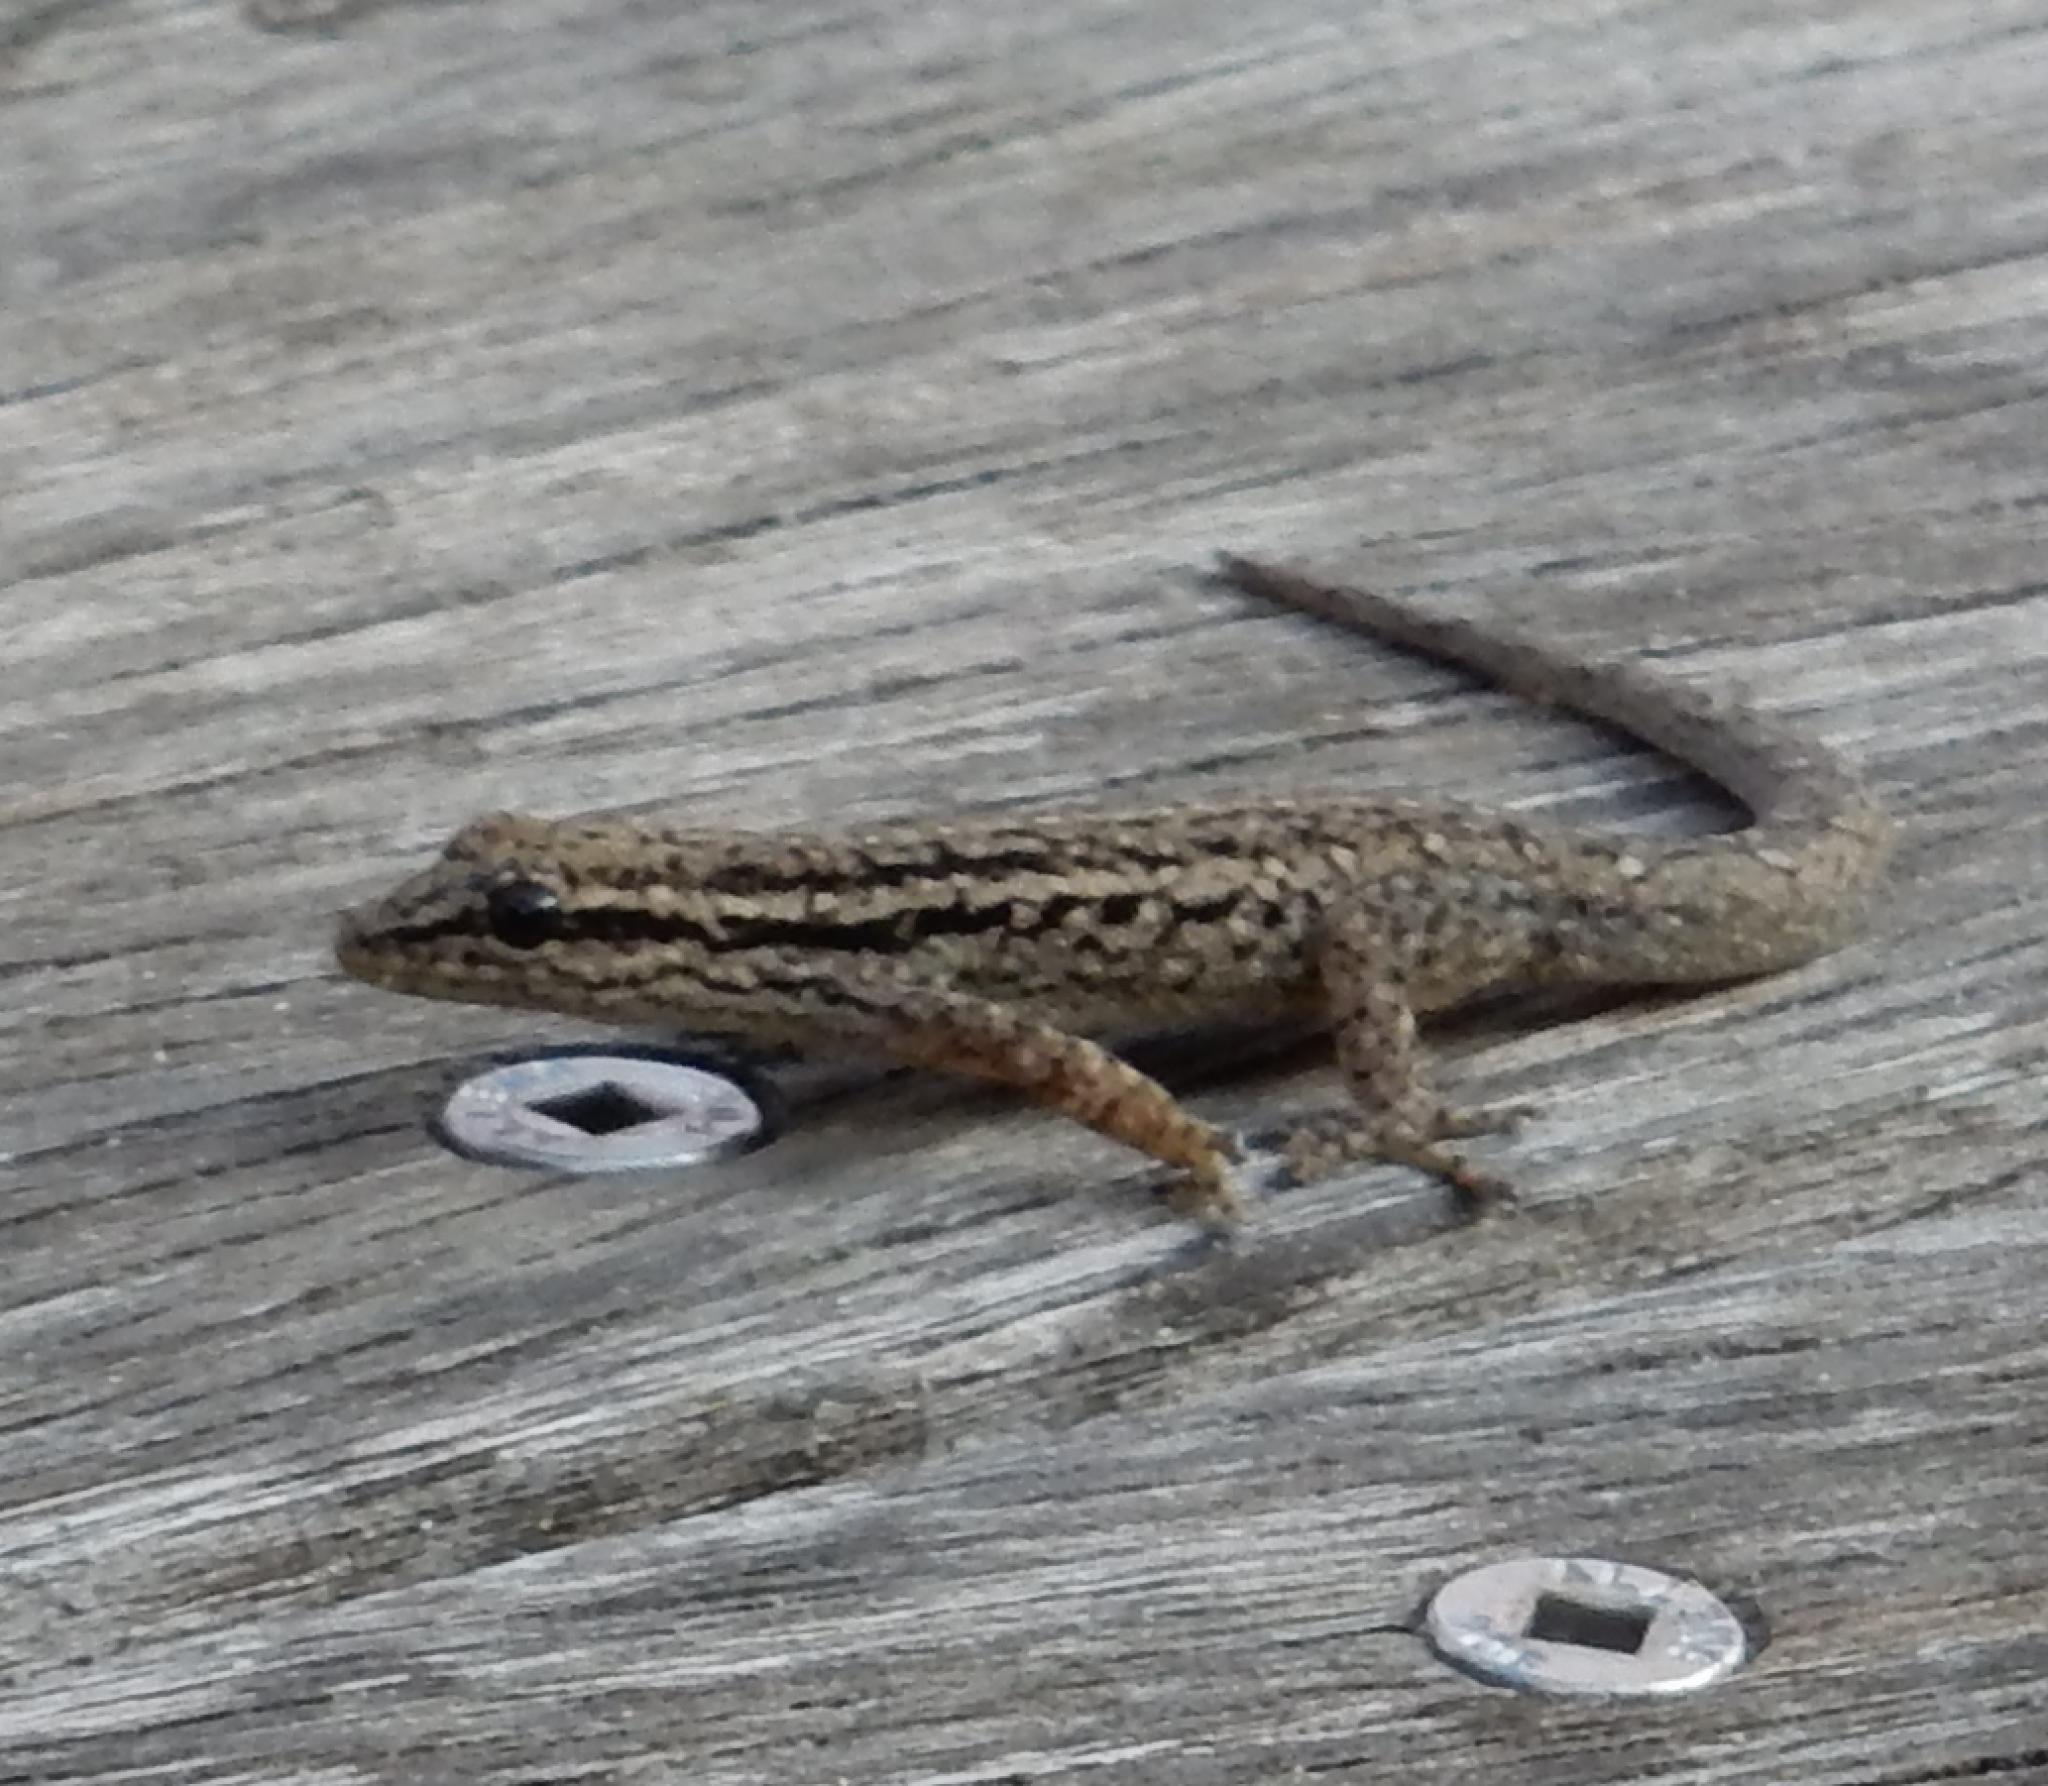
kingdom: Animalia
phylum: Chordata
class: Squamata
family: Gekkonidae
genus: Lygodactylus
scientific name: Lygodactylus capensis
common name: Cape dwarf gecko
